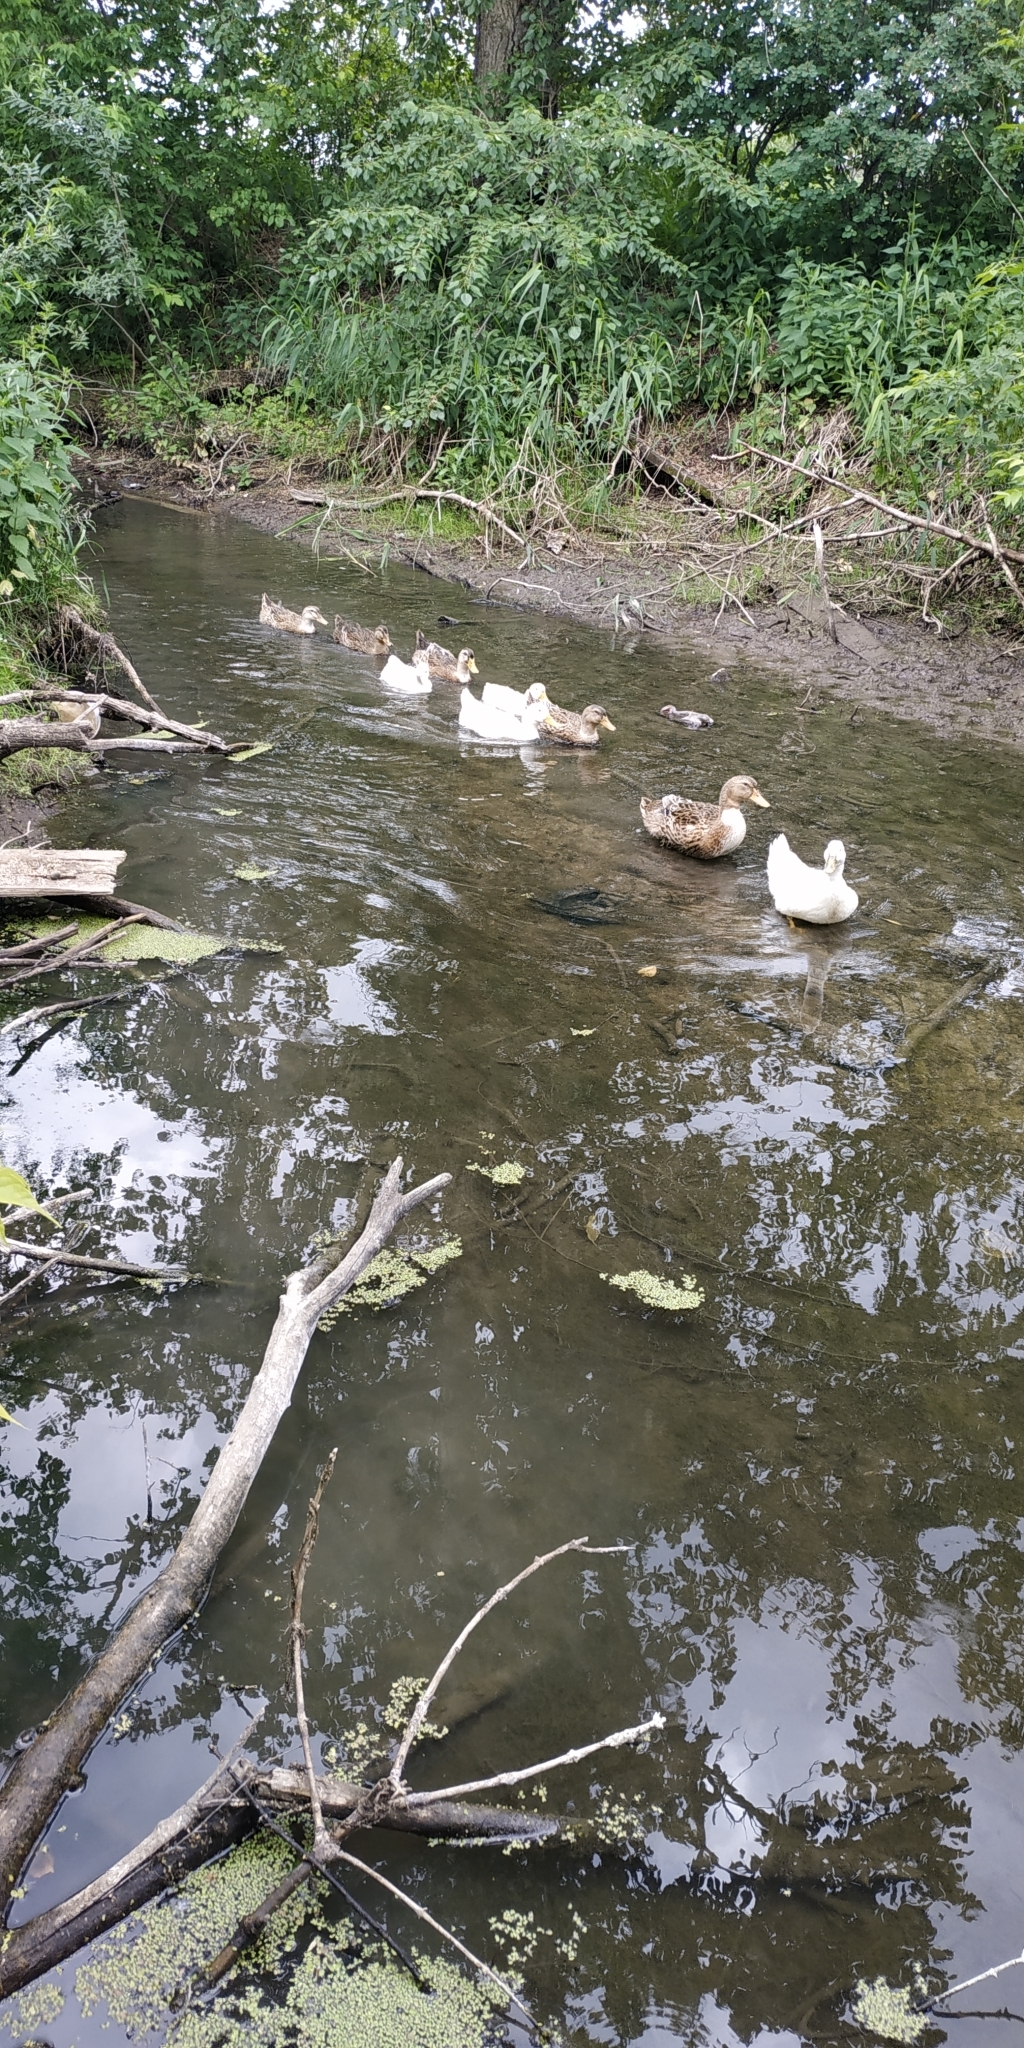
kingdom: Animalia
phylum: Chordata
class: Aves
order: Anseriformes
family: Anatidae
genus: Anas
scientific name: Anas platyrhynchos
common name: Mallard
